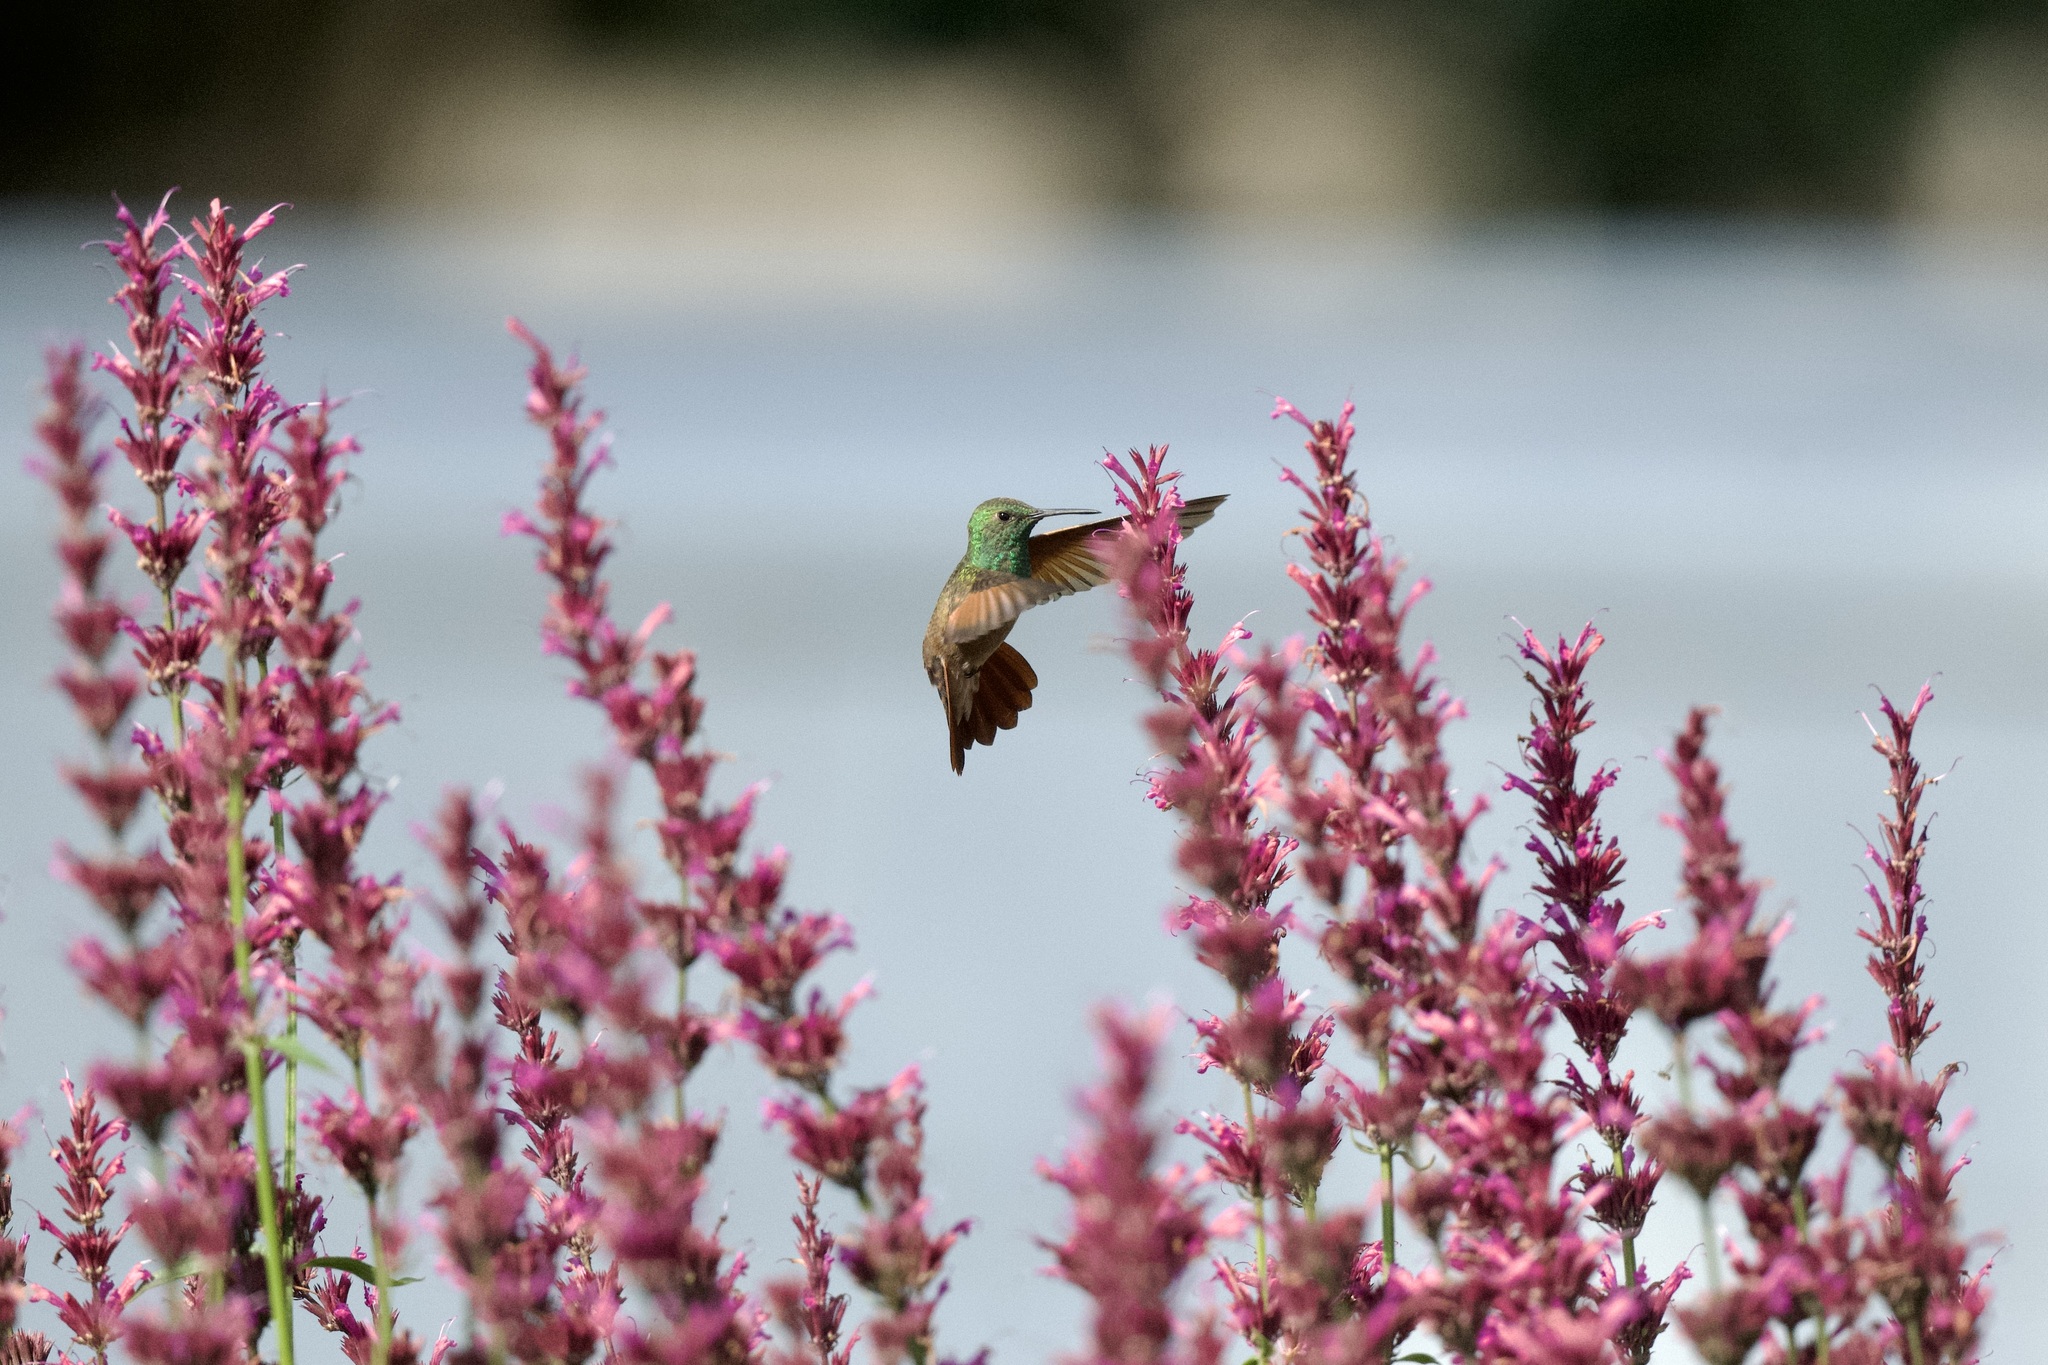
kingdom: Animalia
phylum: Chordata
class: Aves
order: Apodiformes
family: Trochilidae
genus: Saucerottia
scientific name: Saucerottia beryllina
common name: Berylline hummingbird
